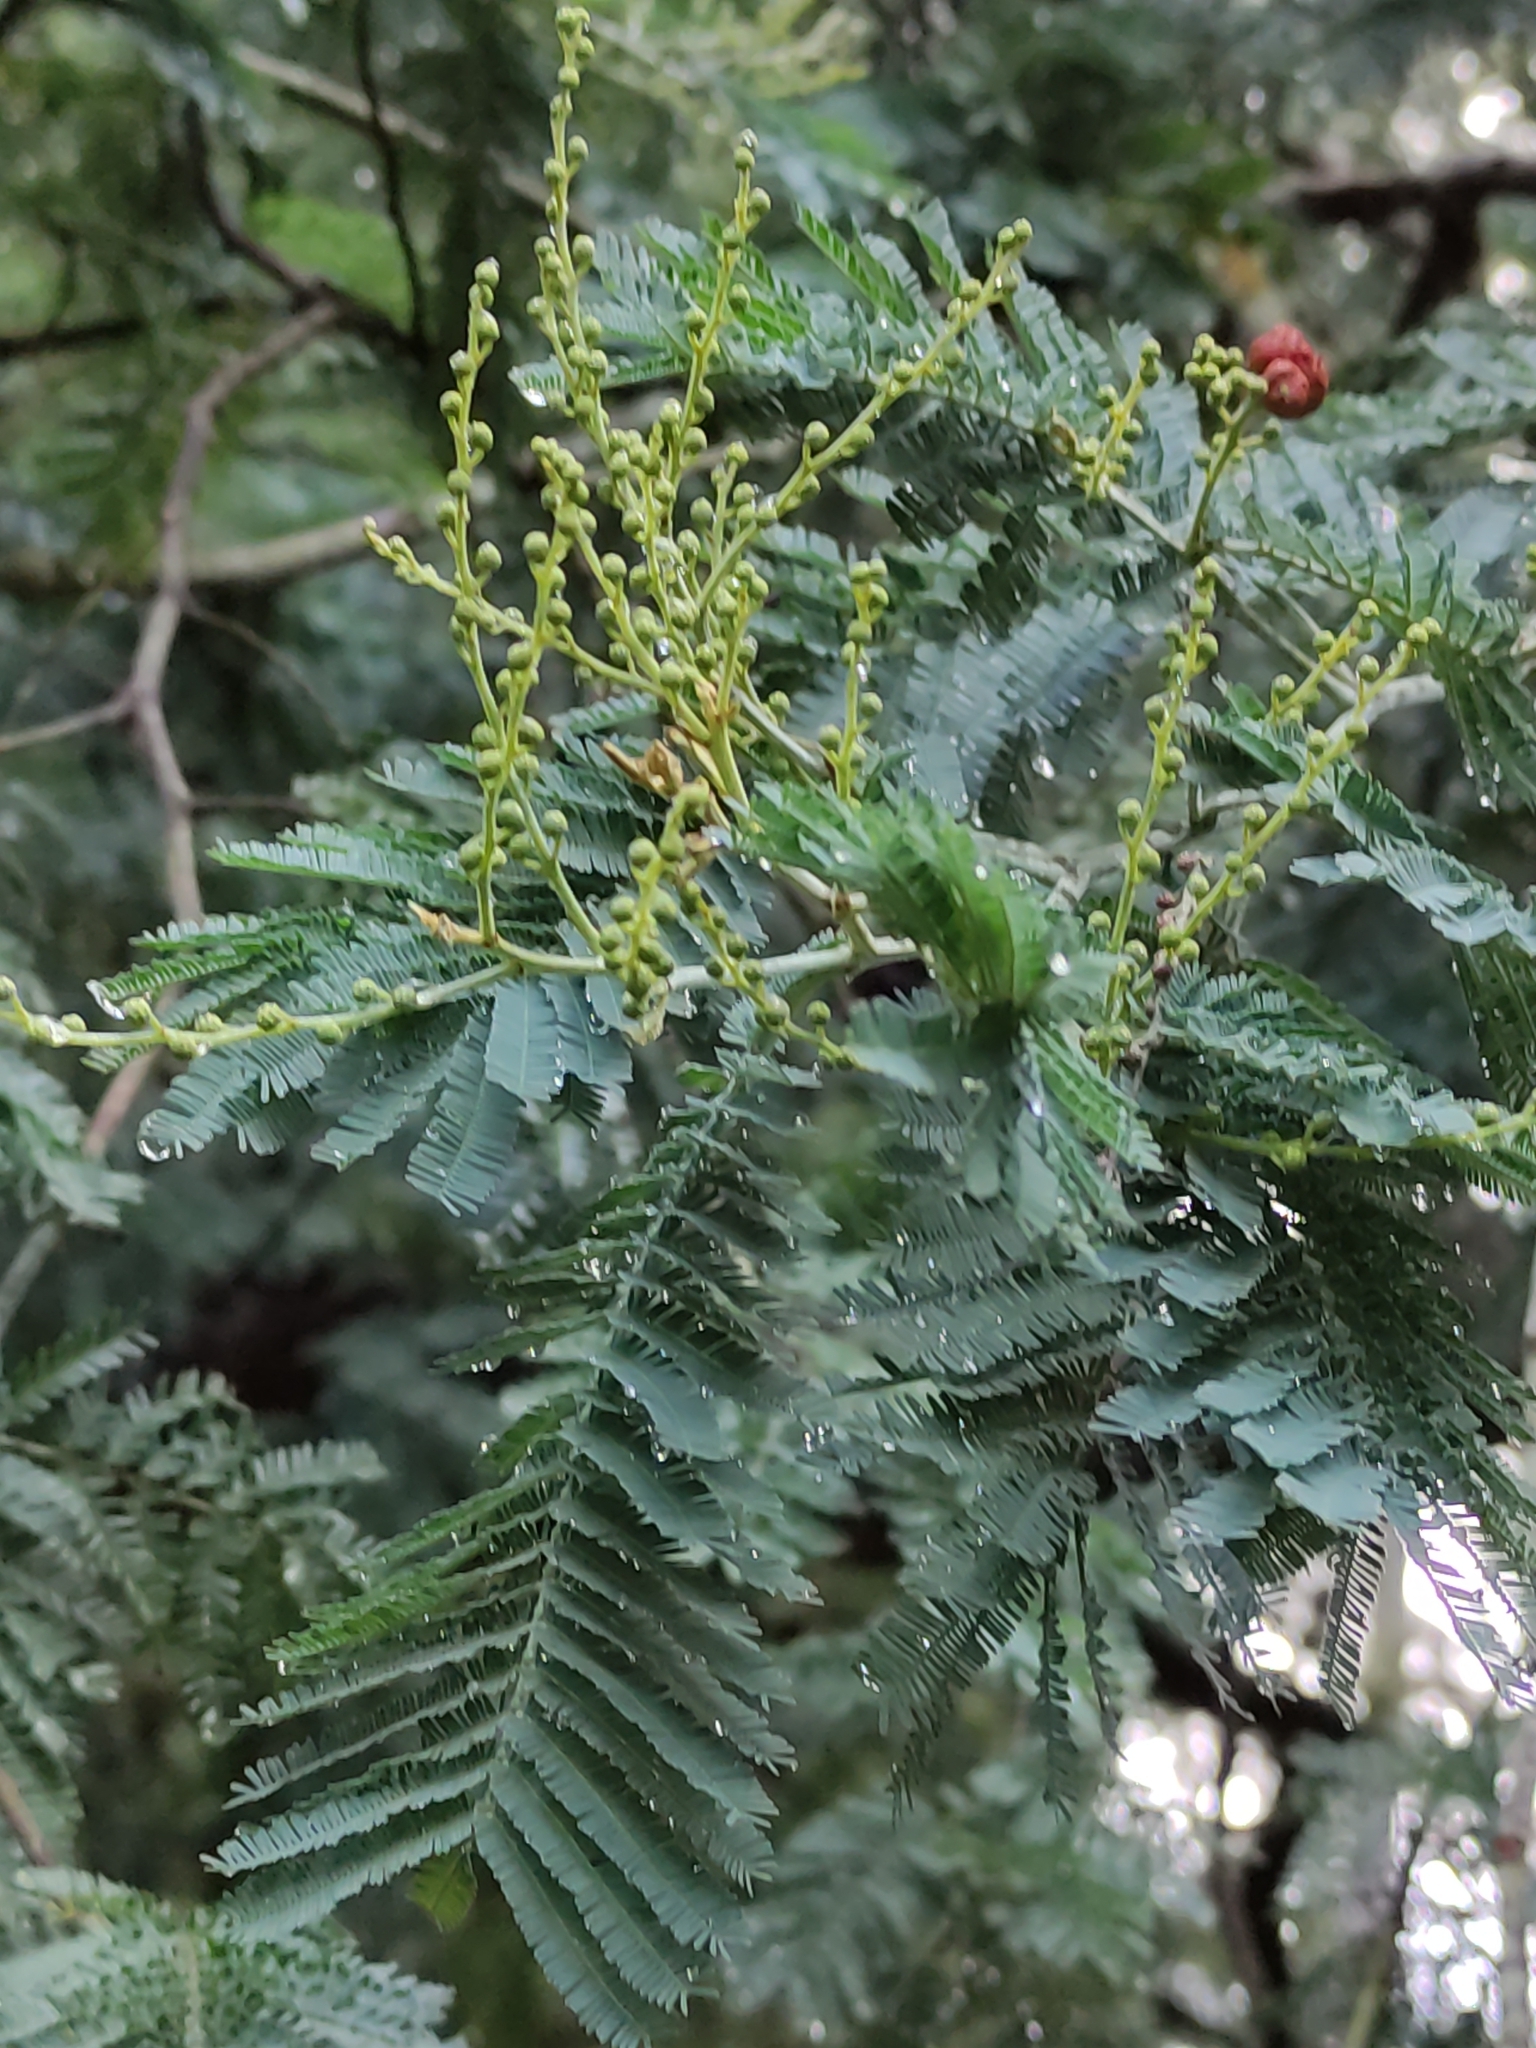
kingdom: Plantae
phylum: Tracheophyta
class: Magnoliopsida
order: Fabales
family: Fabaceae
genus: Acacia
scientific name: Acacia dealbata
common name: Silver wattle
